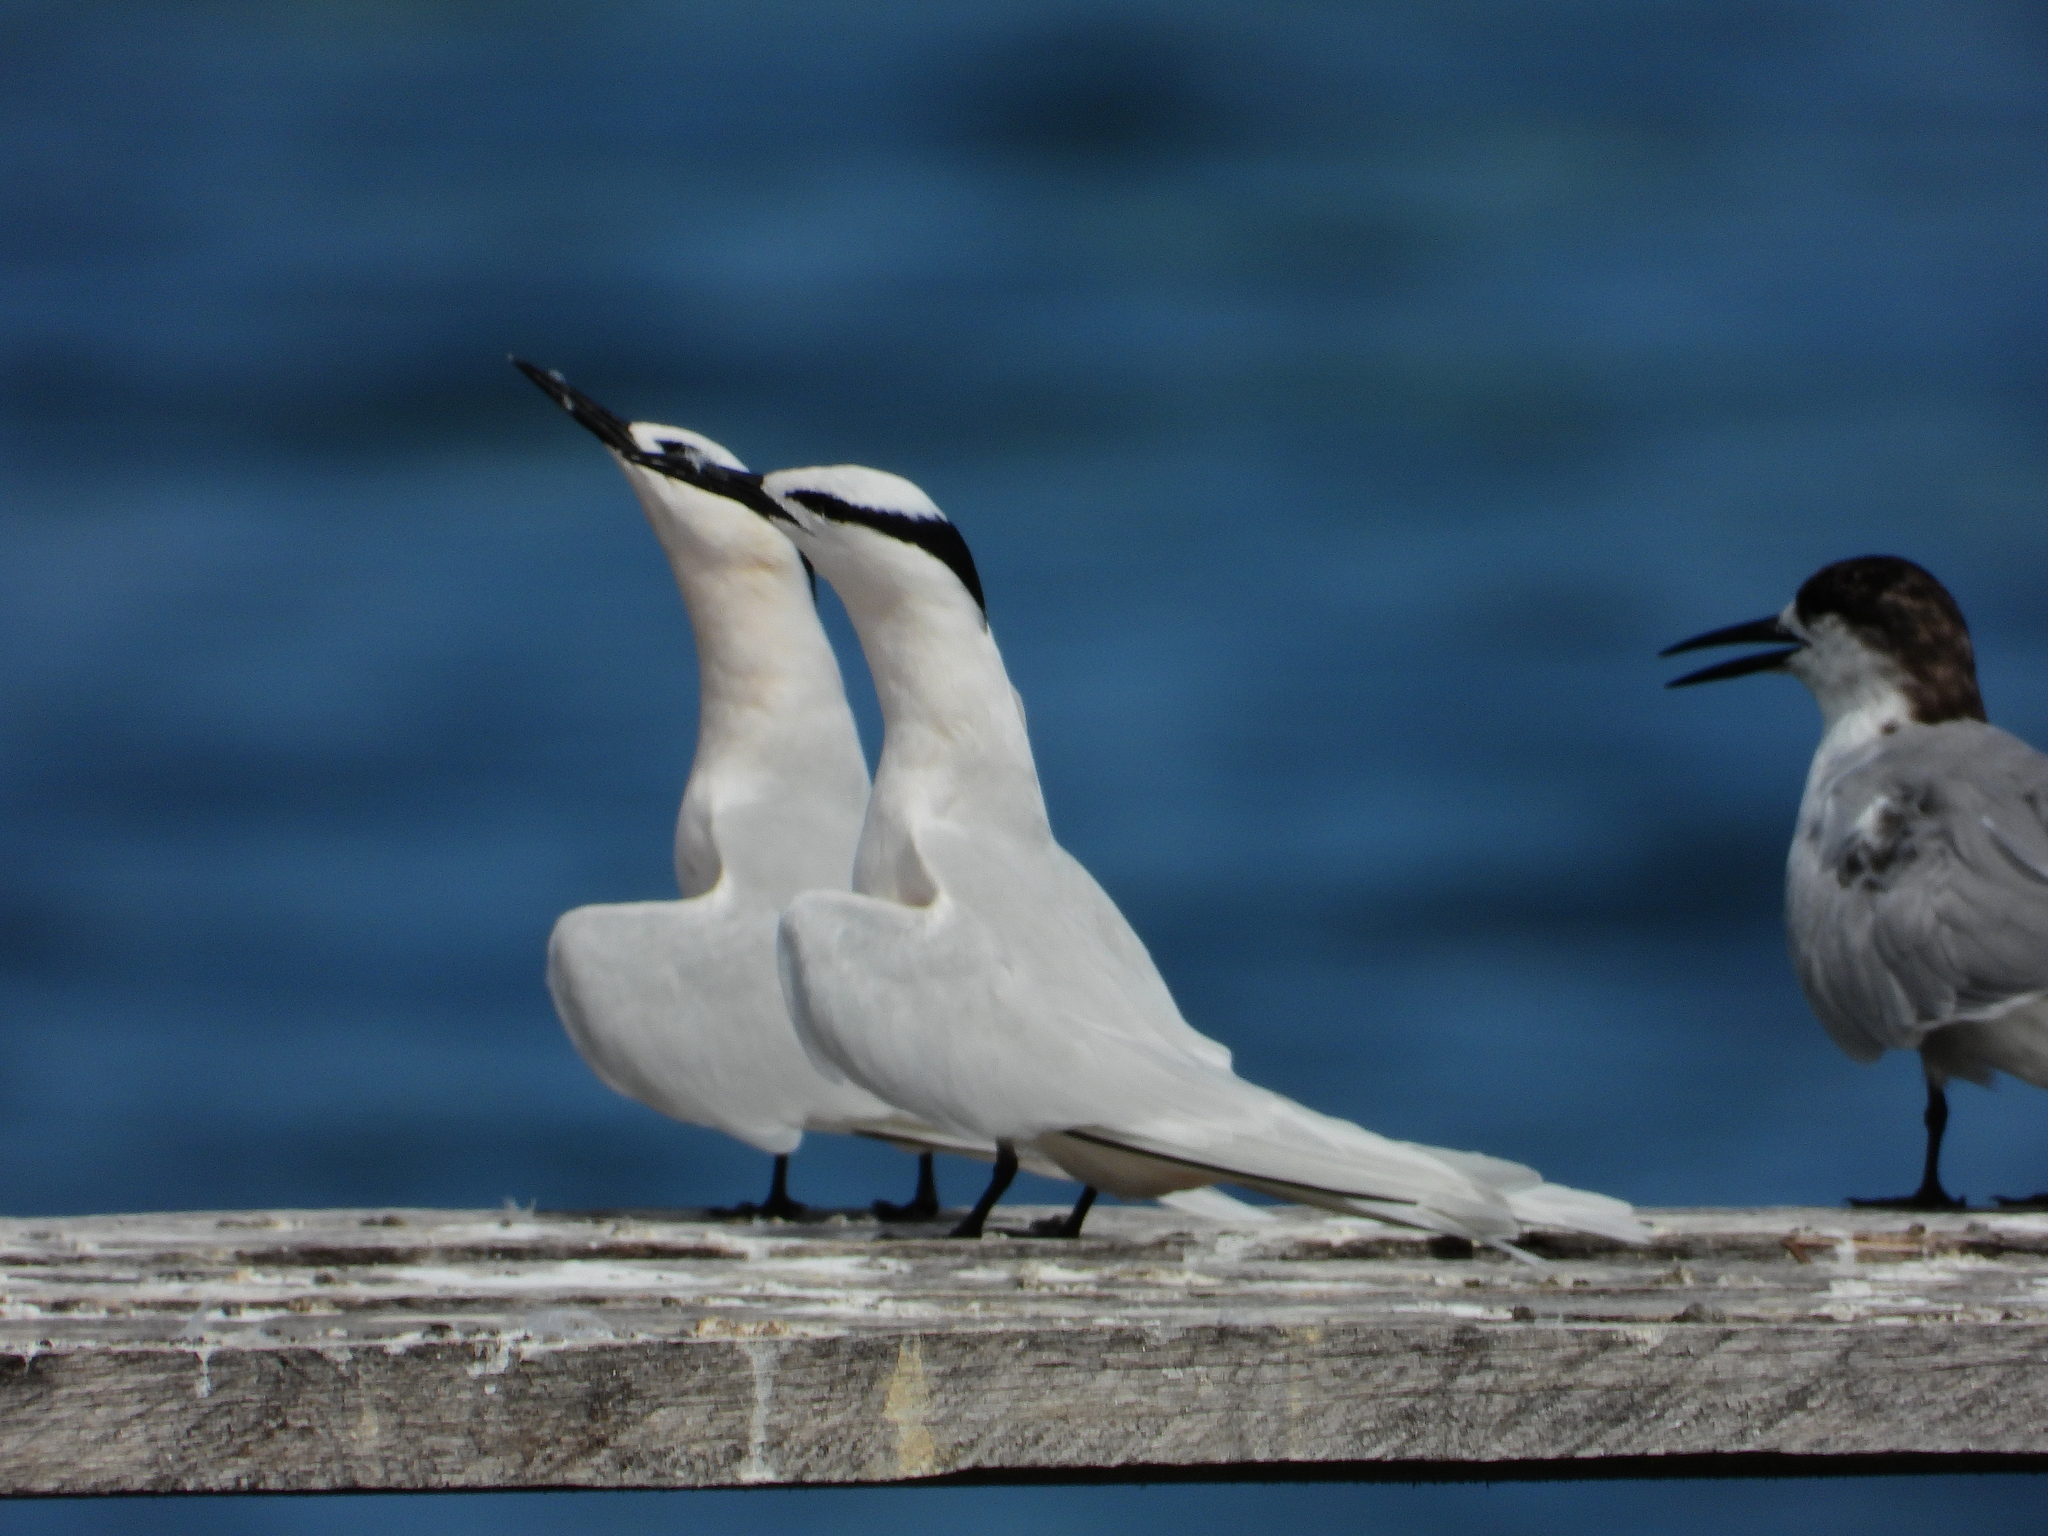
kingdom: Animalia
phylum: Chordata
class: Aves
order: Charadriiformes
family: Laridae
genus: Sterna
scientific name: Sterna sumatrana
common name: Black-naped tern
